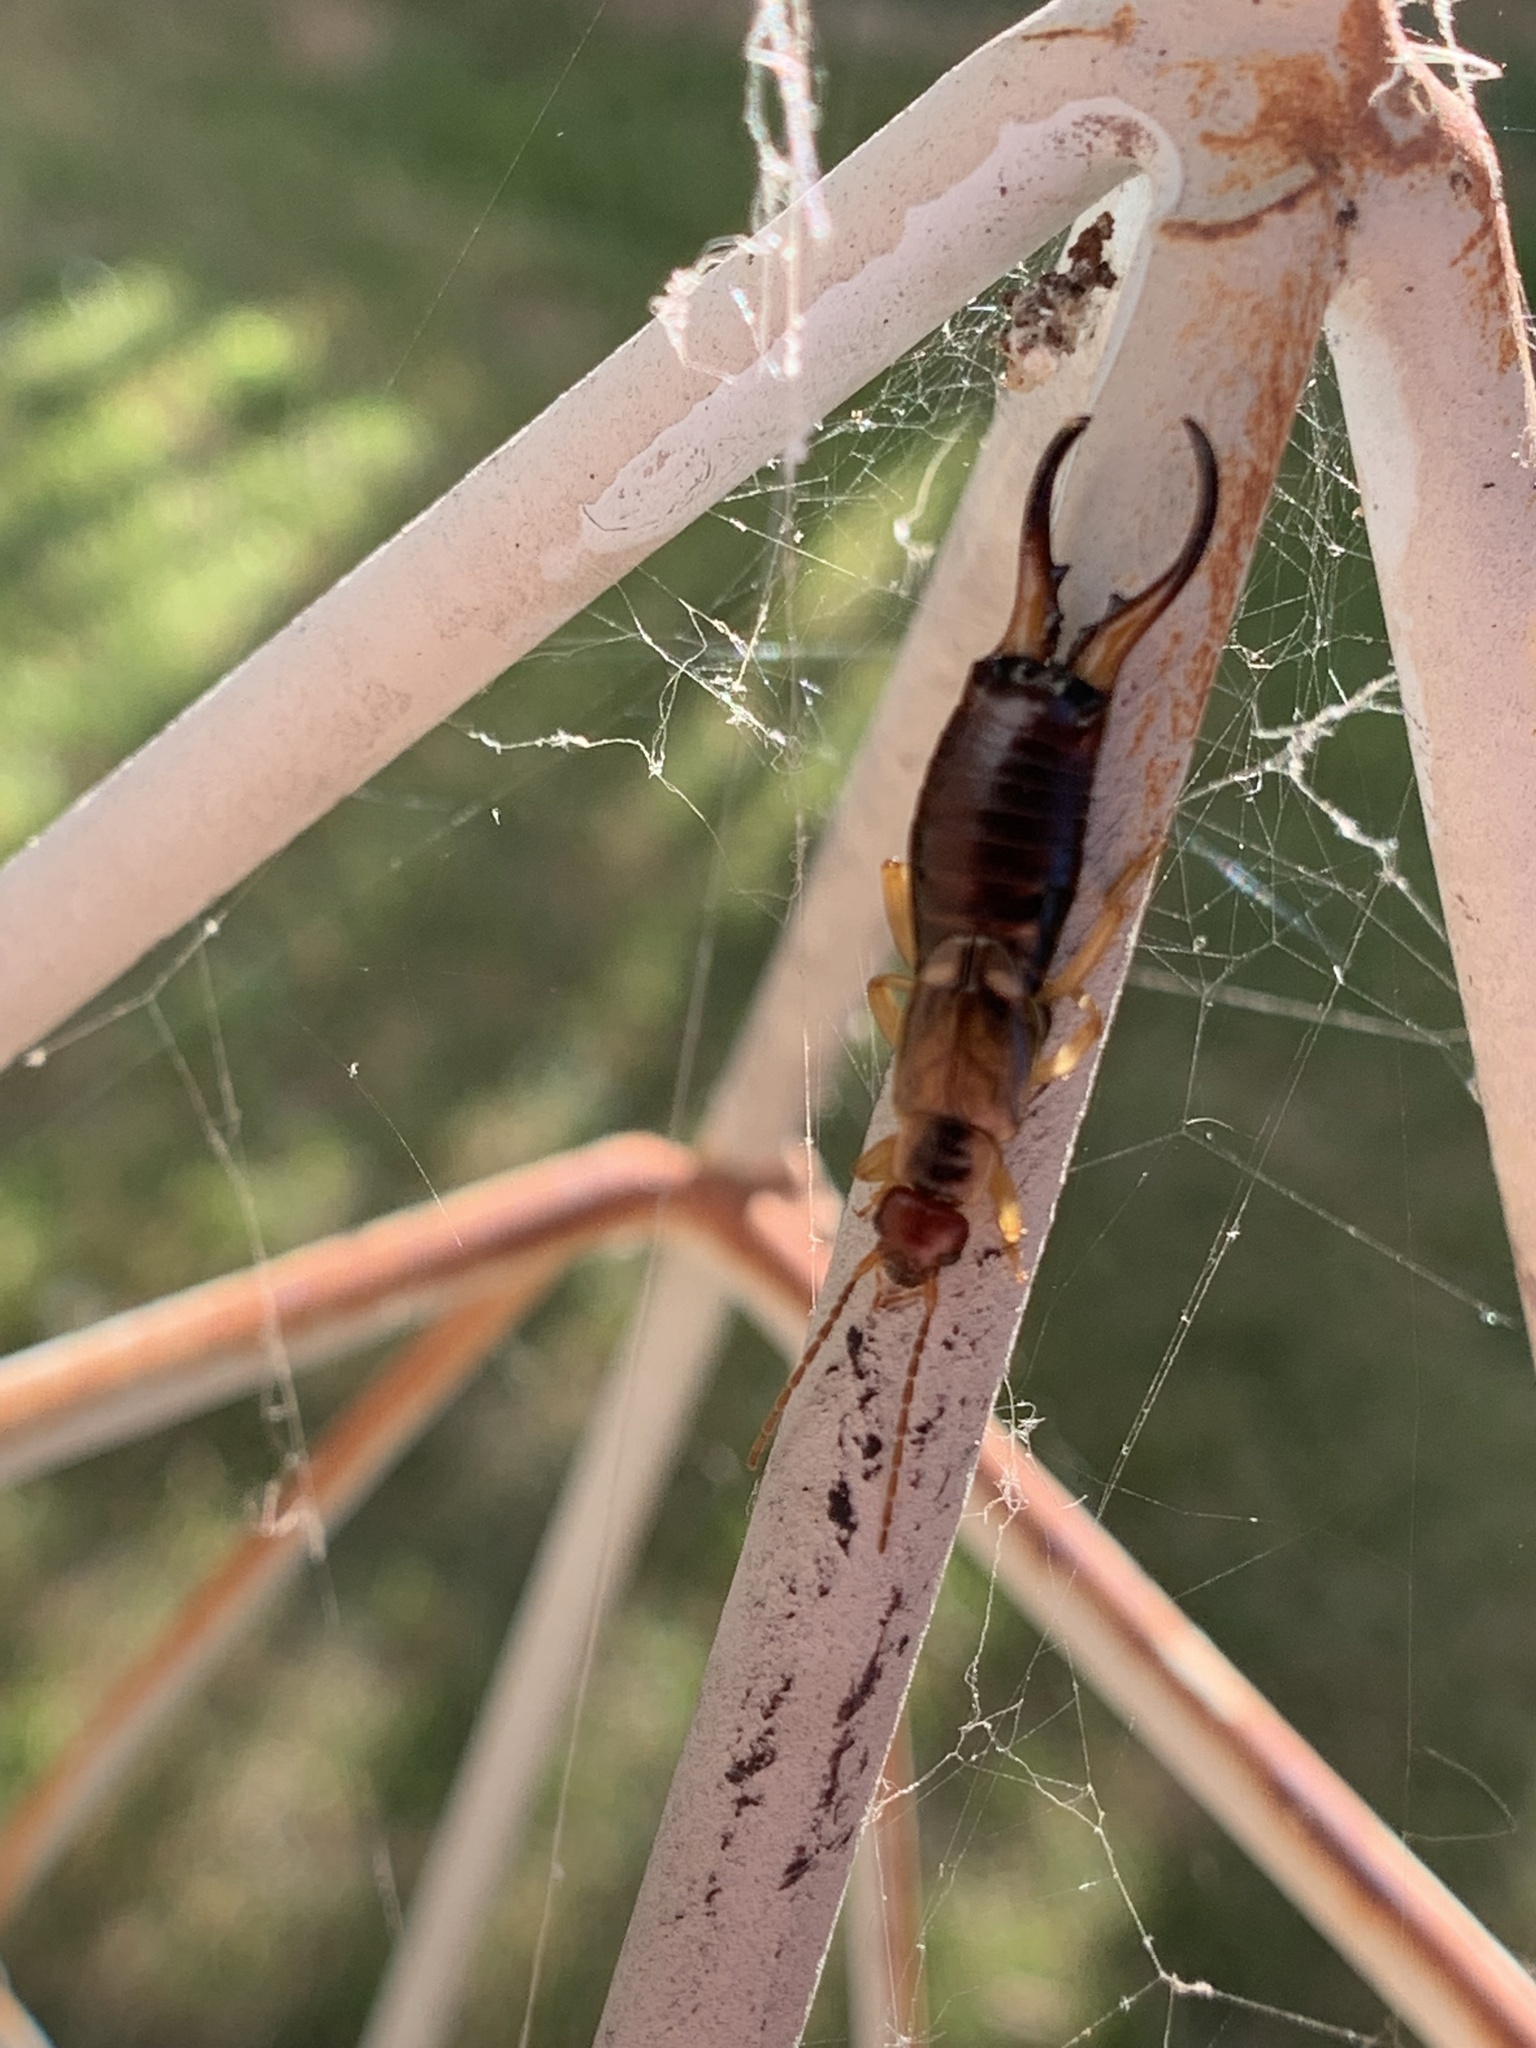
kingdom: Animalia
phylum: Arthropoda
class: Insecta
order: Dermaptera
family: Forficulidae
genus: Forficula
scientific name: Forficula
